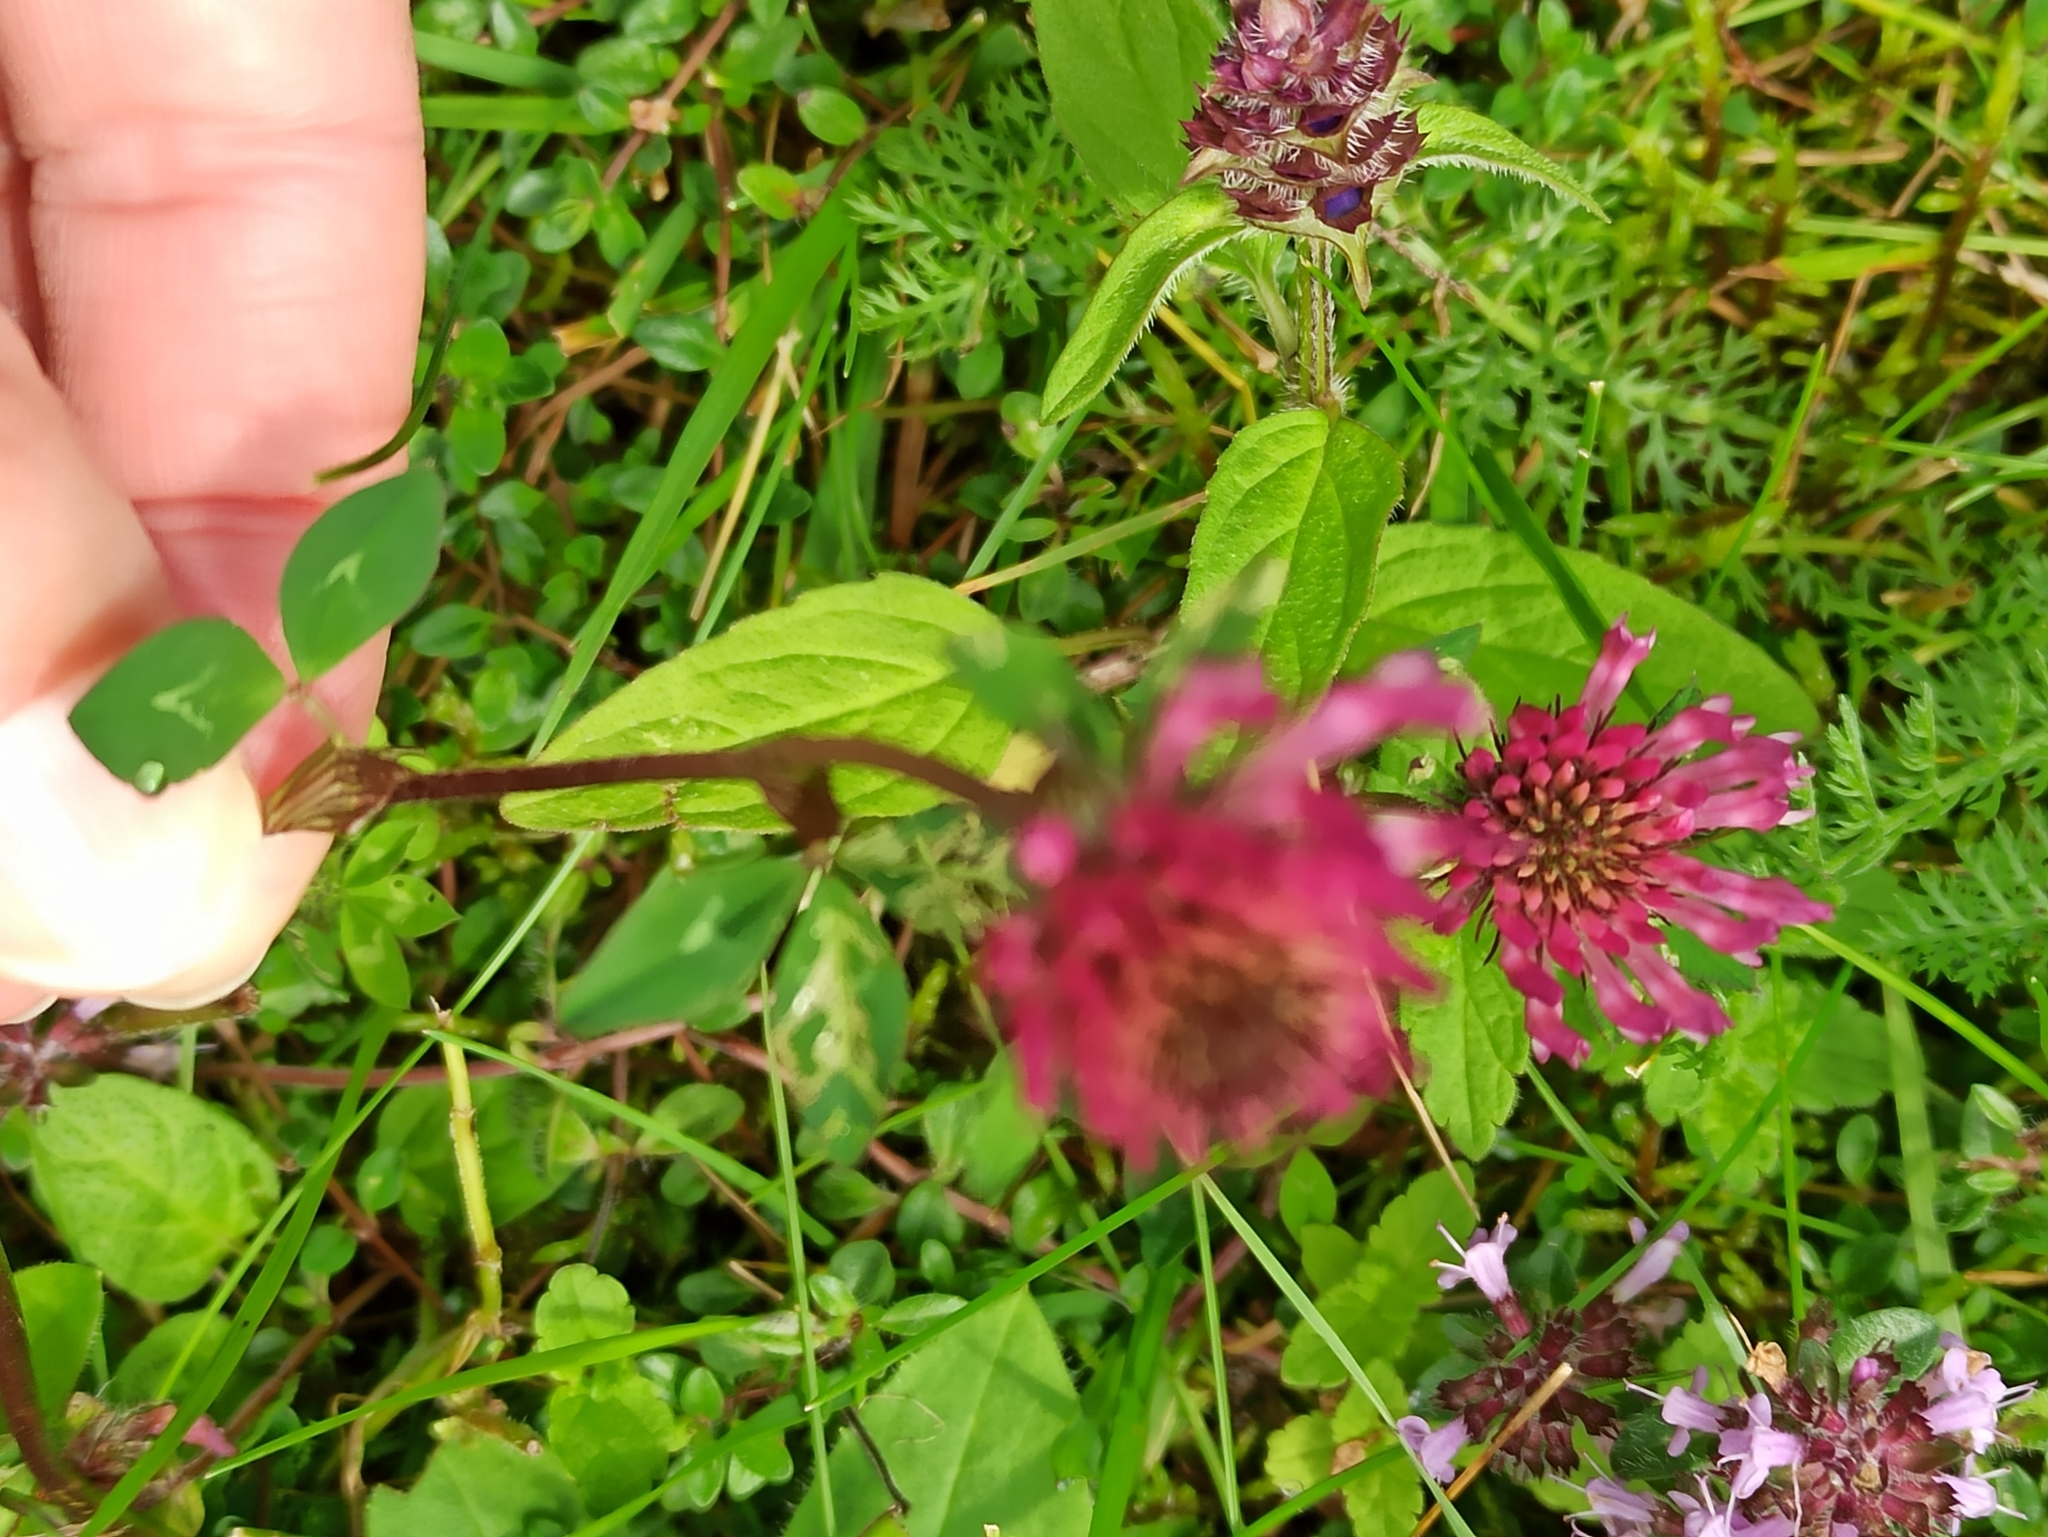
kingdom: Plantae
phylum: Tracheophyta
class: Magnoliopsida
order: Fabales
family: Fabaceae
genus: Trifolium
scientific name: Trifolium pratense
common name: Red clover
